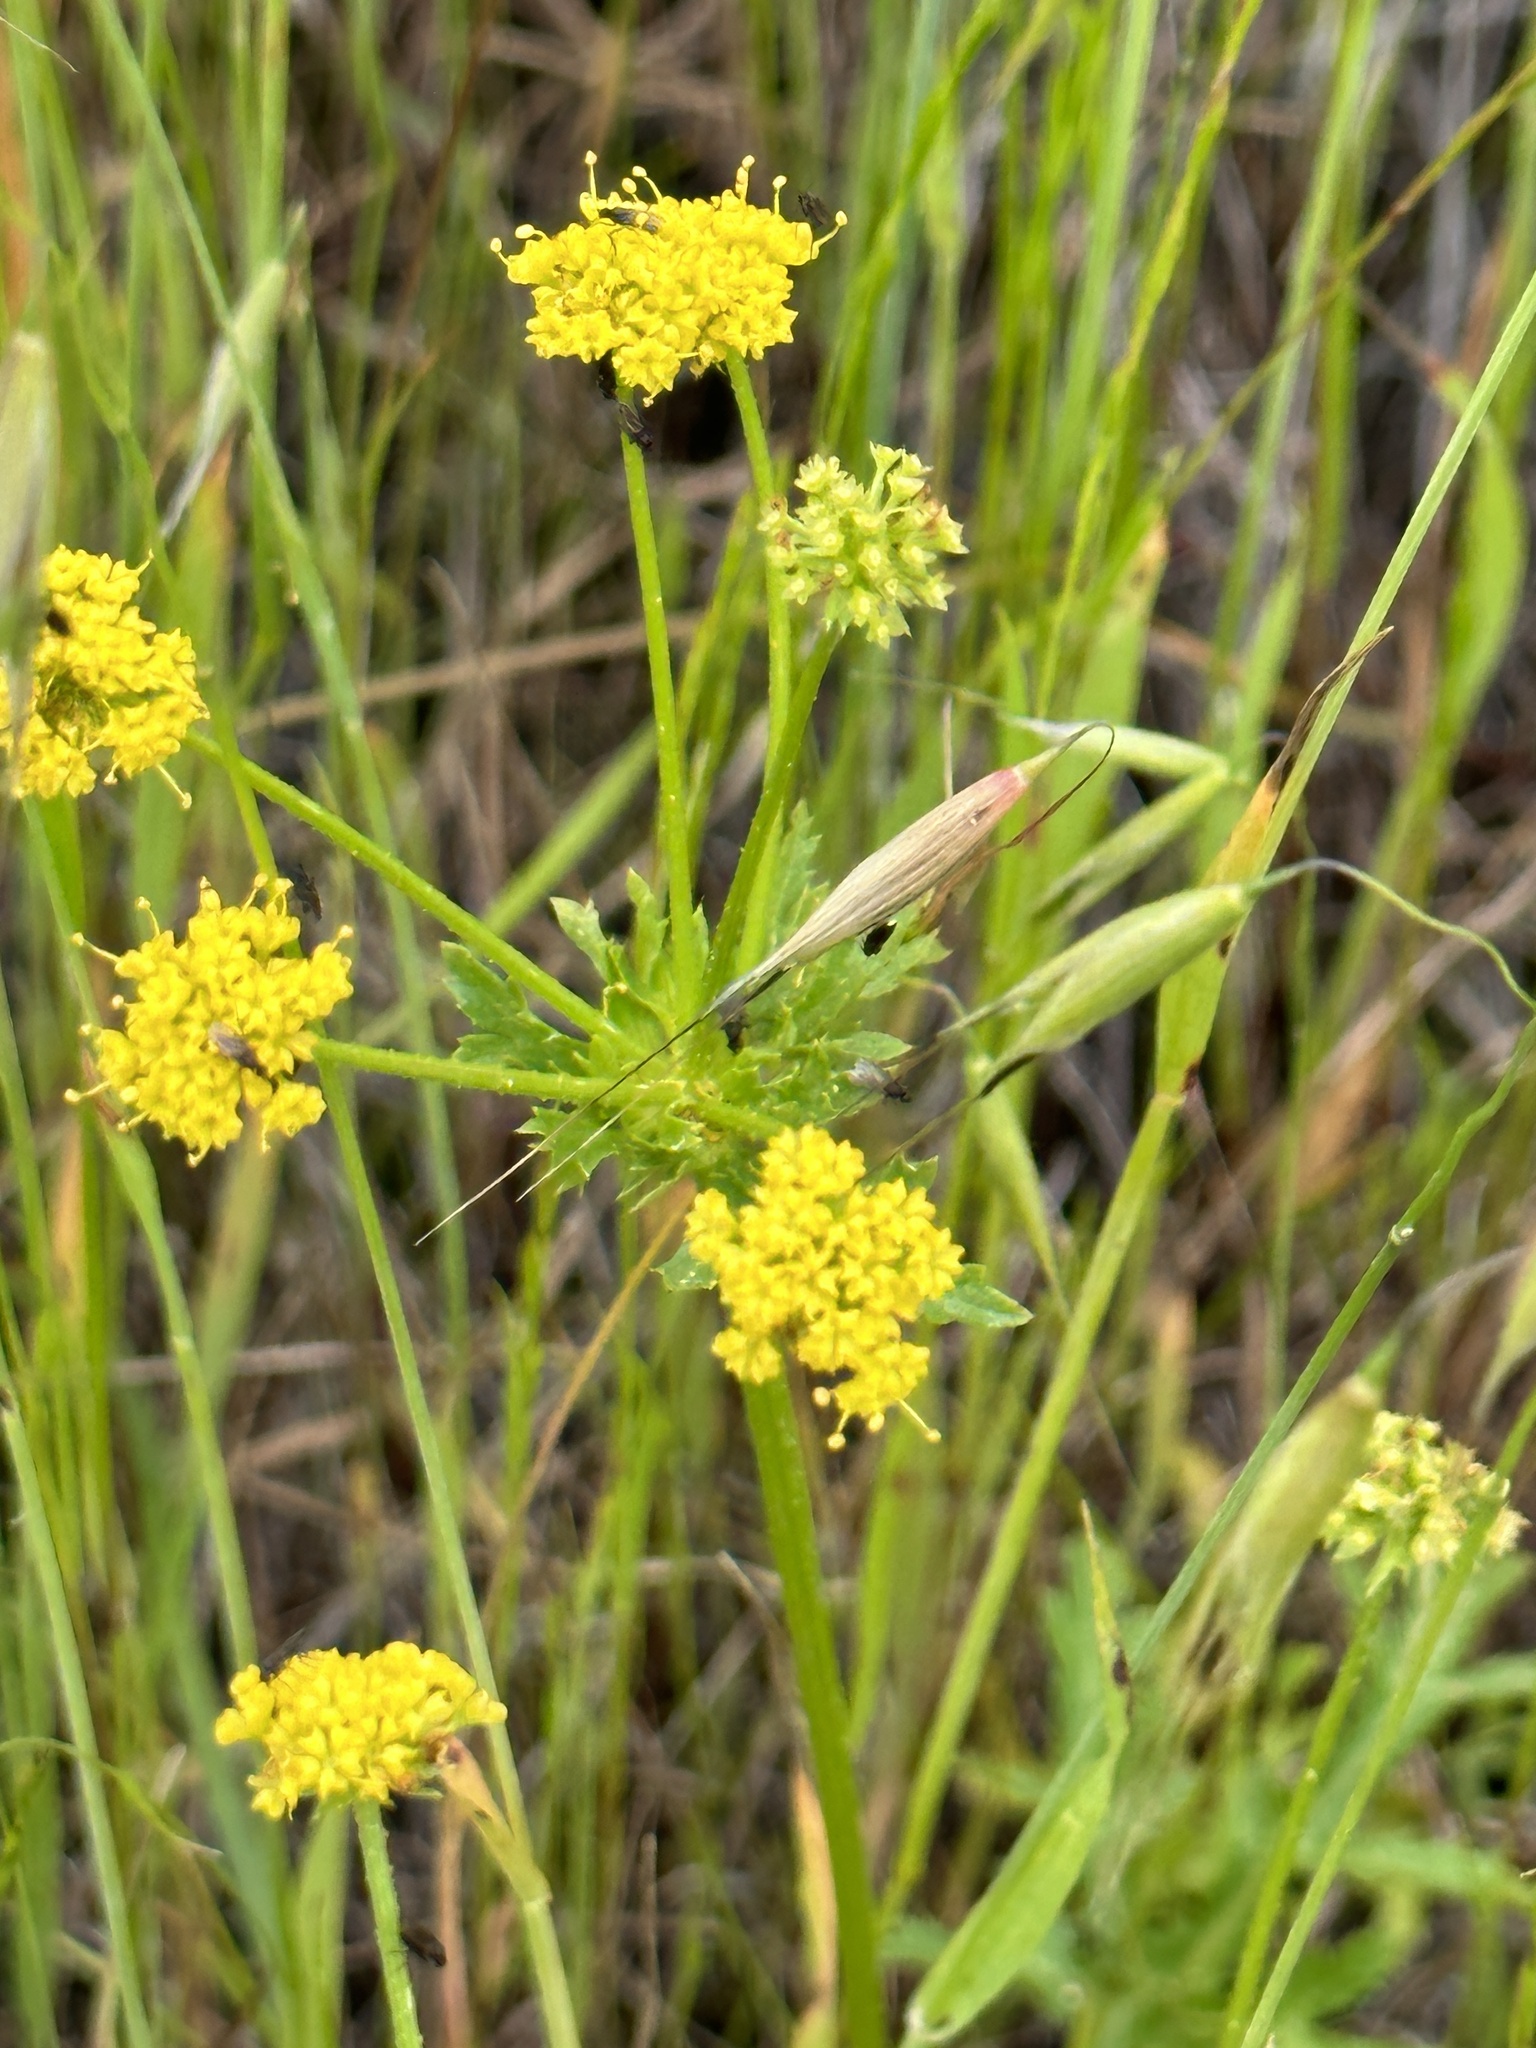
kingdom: Plantae
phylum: Tracheophyta
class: Magnoliopsida
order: Apiales
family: Apiaceae
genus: Sanicula
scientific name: Sanicula arguta
